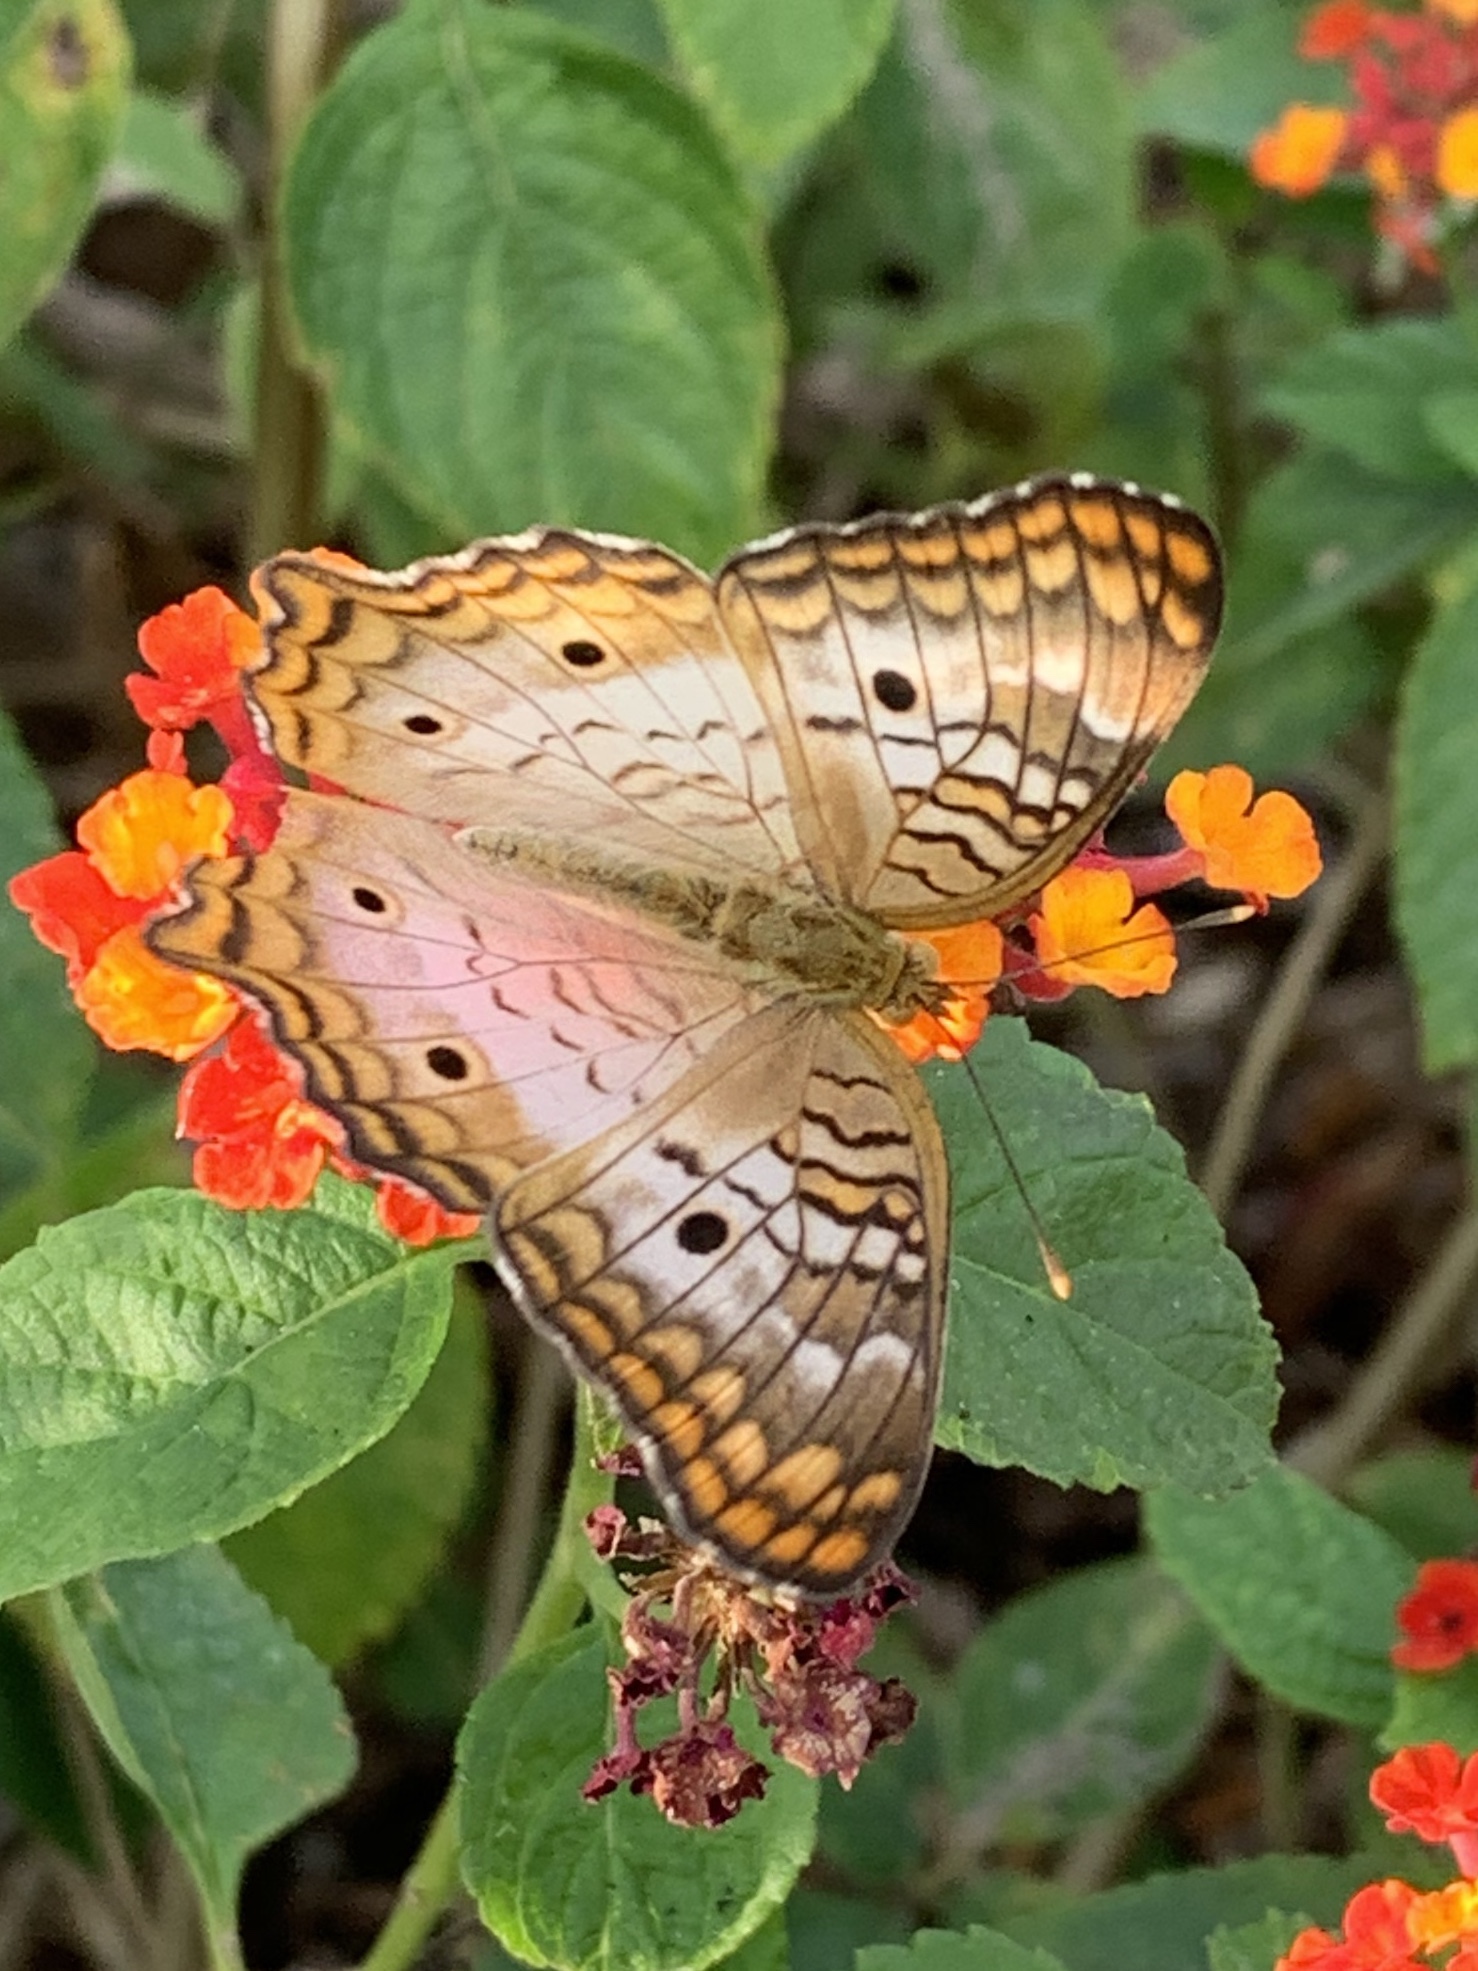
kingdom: Animalia
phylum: Arthropoda
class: Insecta
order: Lepidoptera
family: Nymphalidae
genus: Anartia
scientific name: Anartia jatrophae
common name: White peacock
